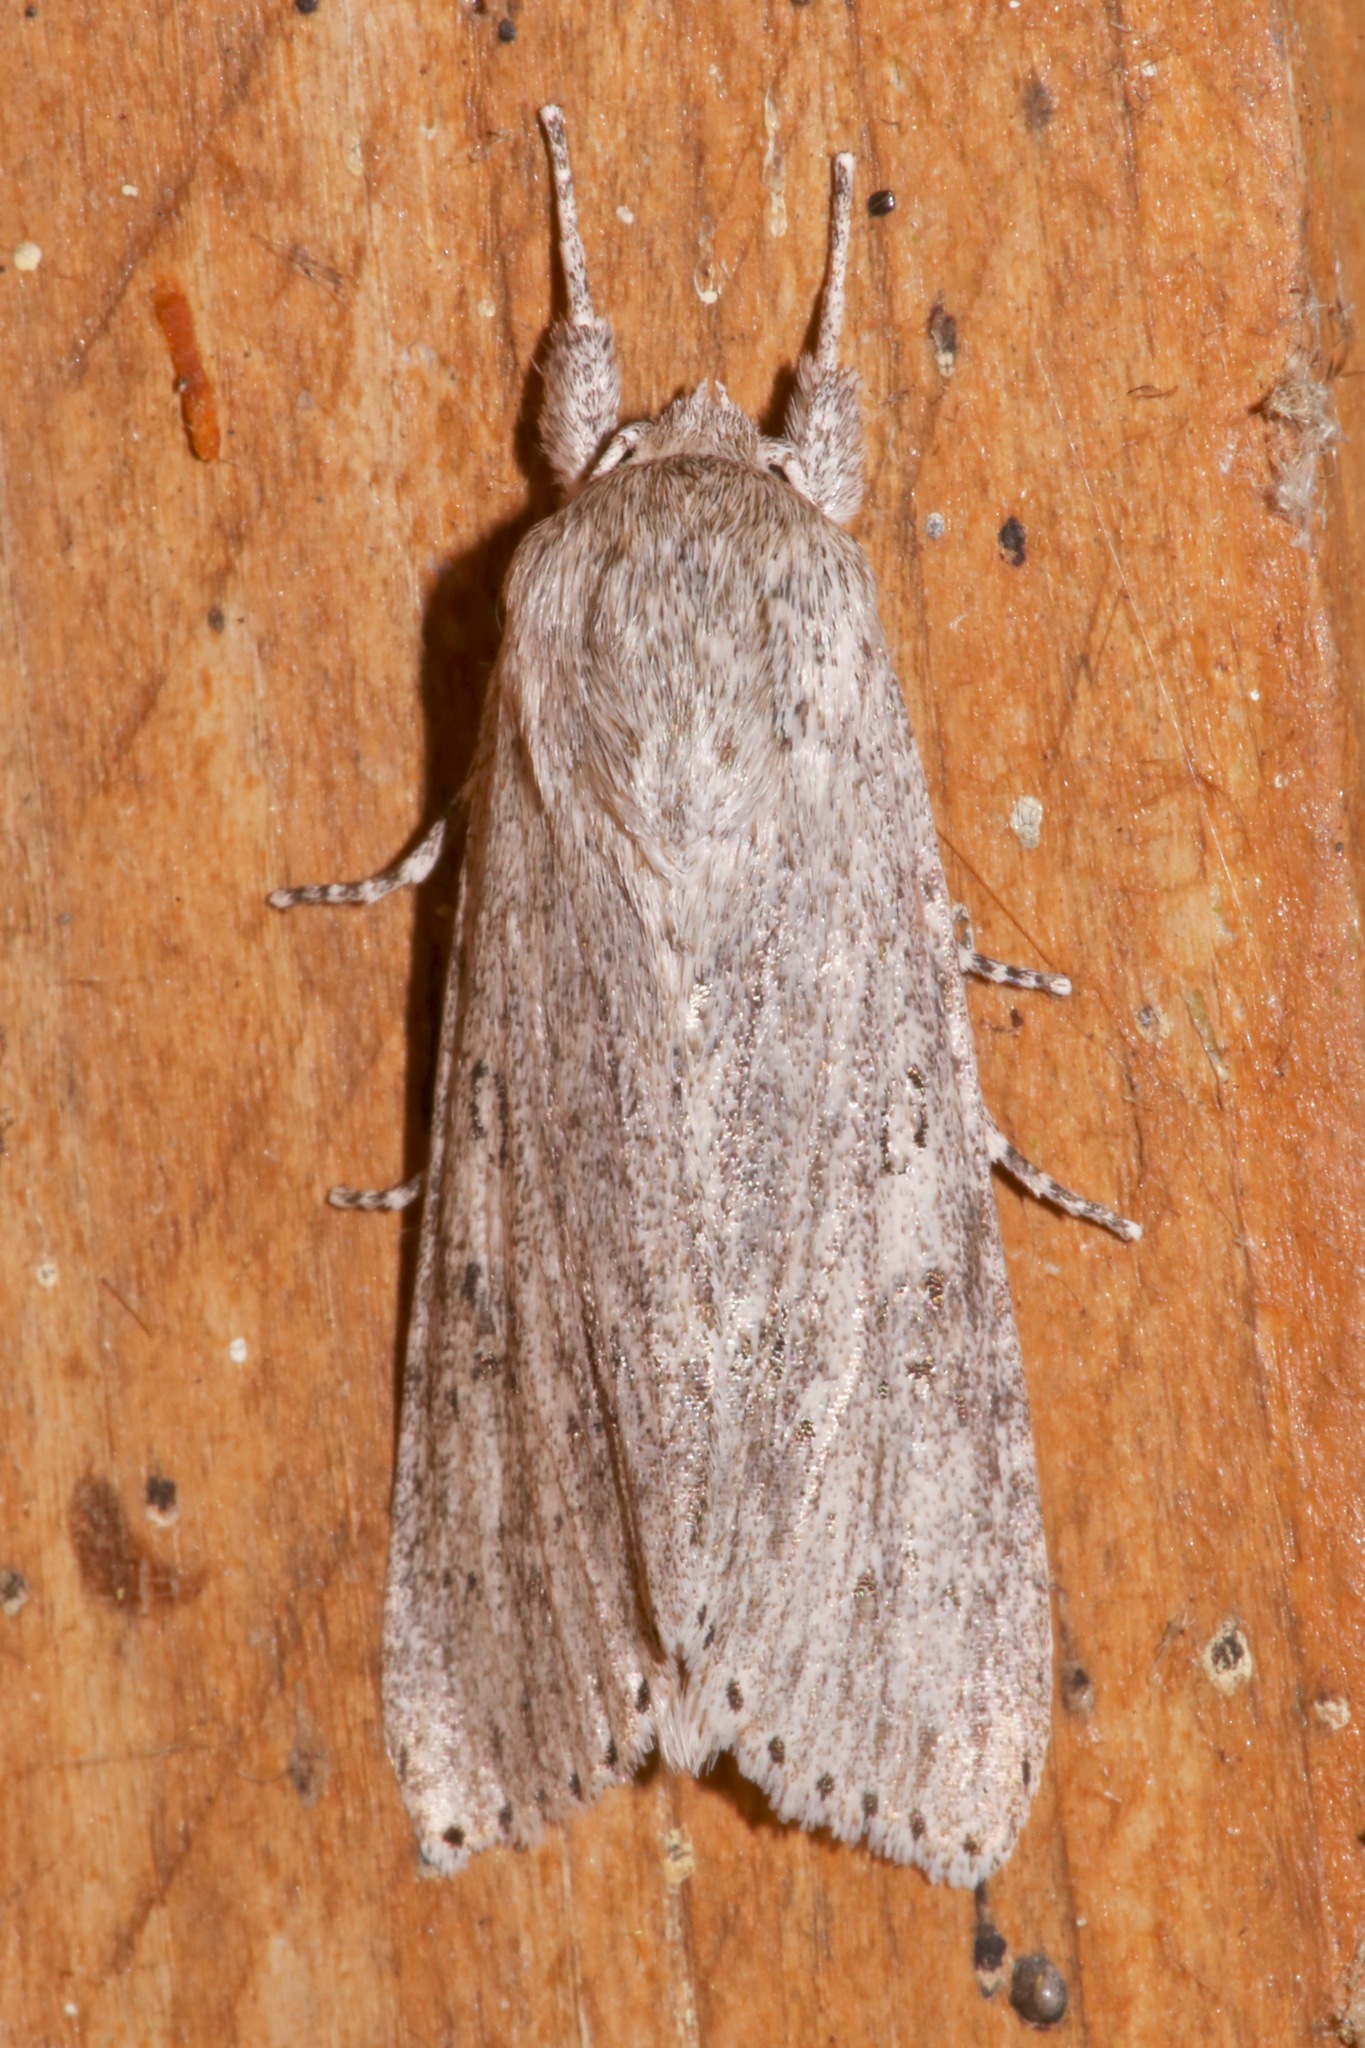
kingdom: Animalia
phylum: Arthropoda
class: Insecta
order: Lepidoptera
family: Noctuidae
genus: Acronicta
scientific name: Acronicta oblinita
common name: Smeared dagger
